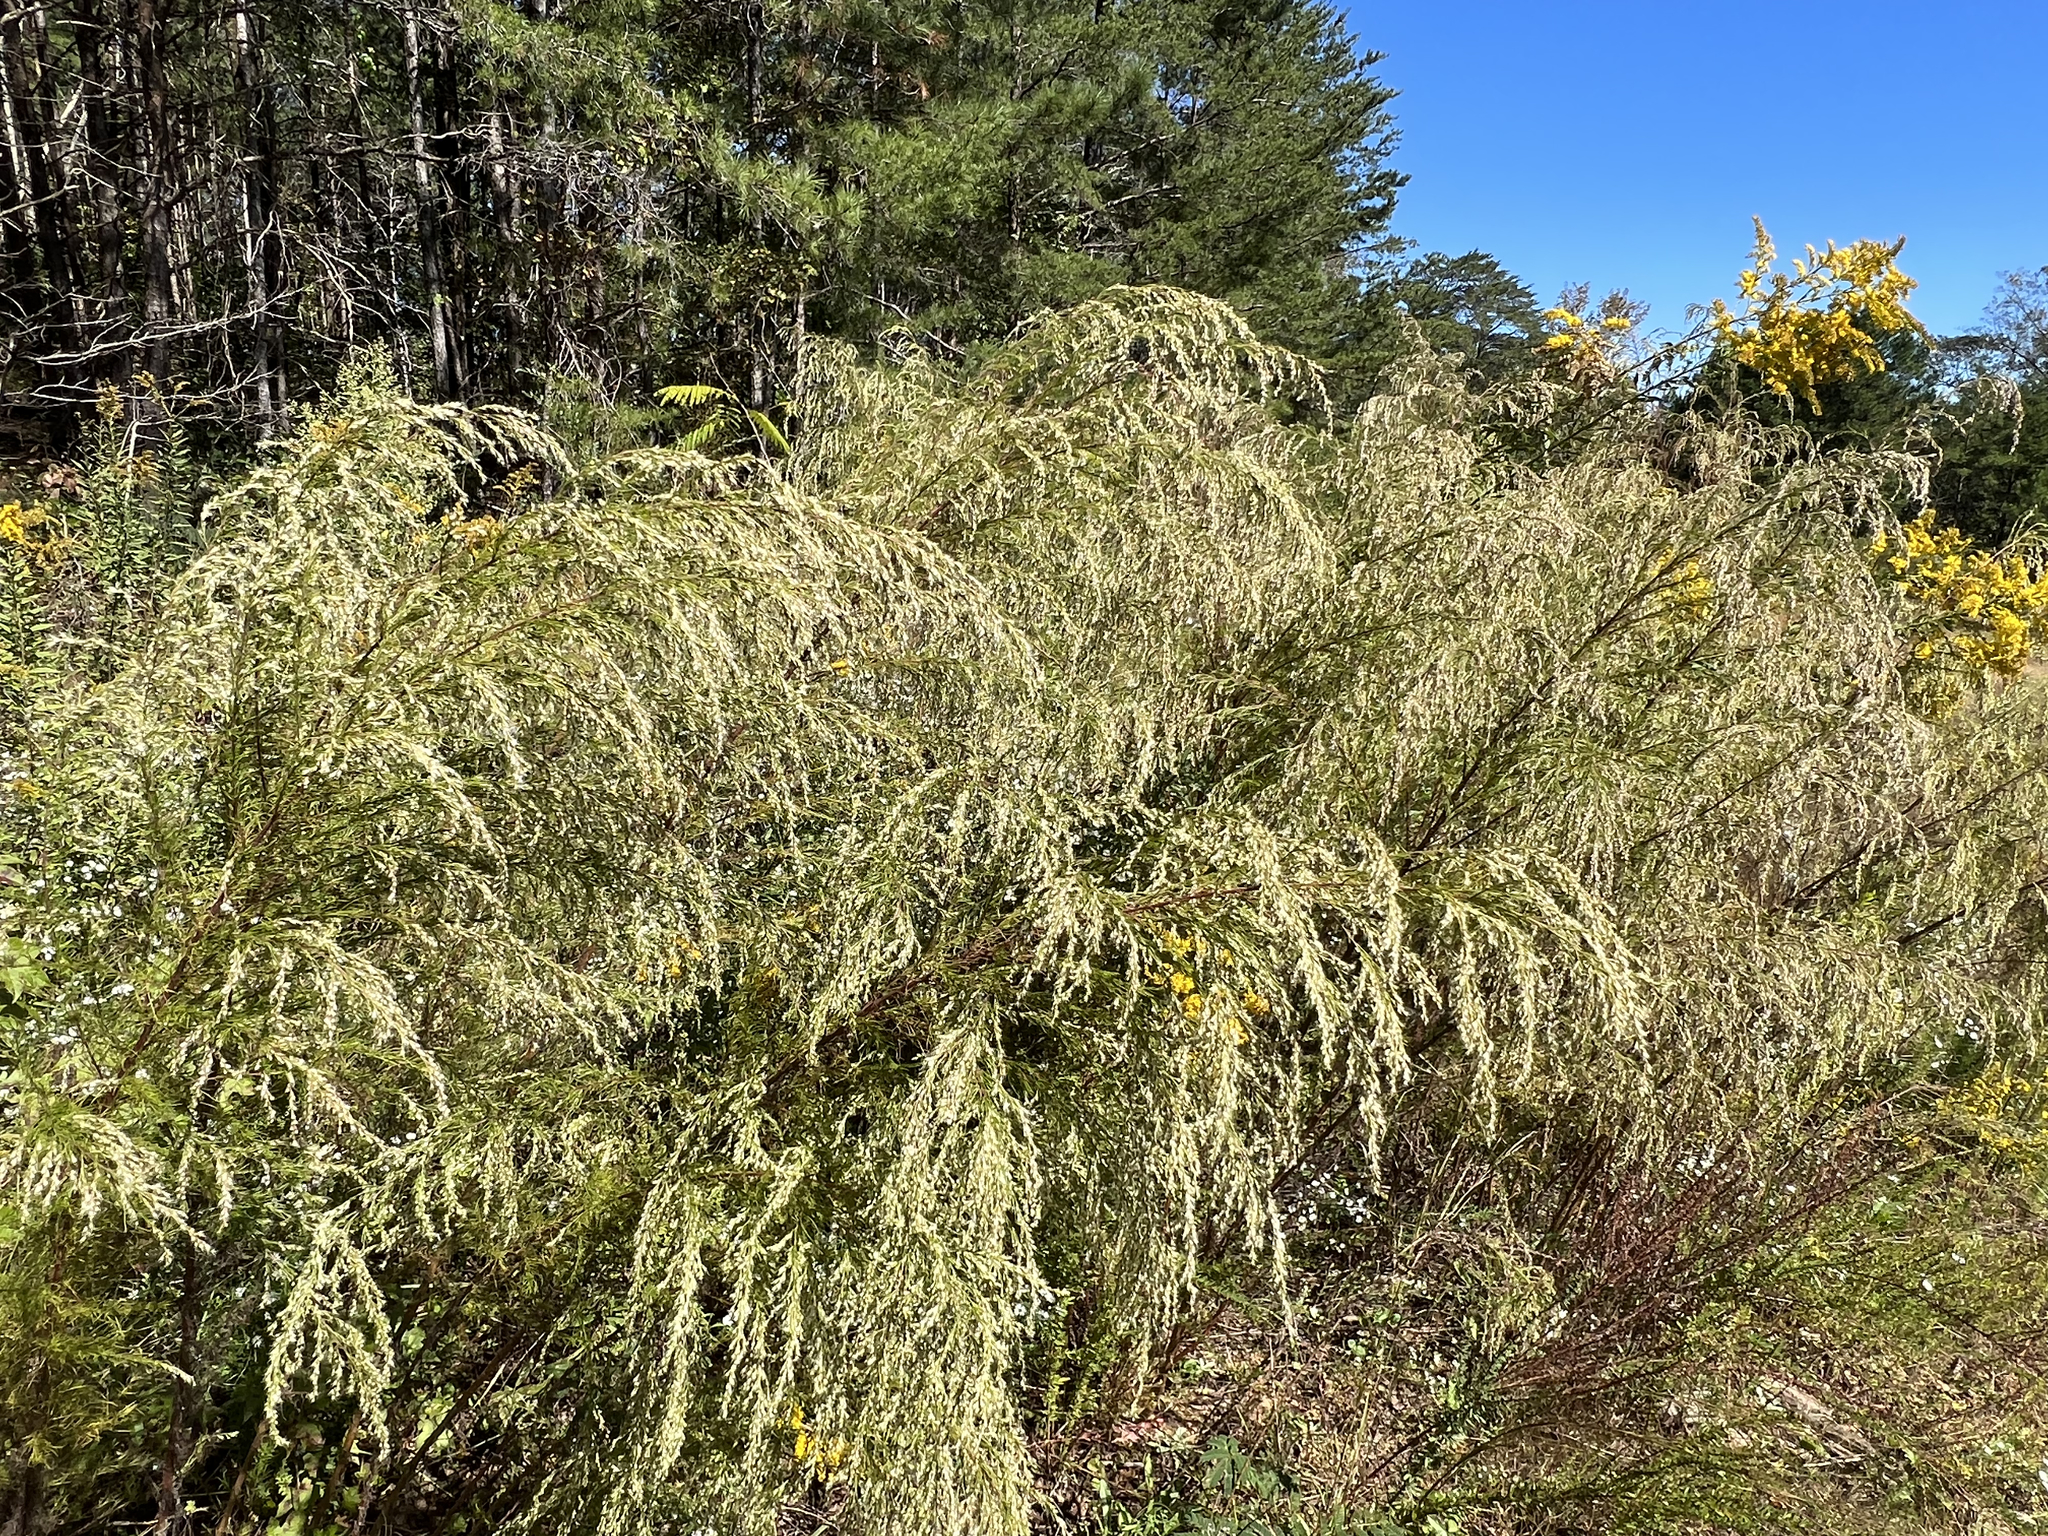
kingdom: Plantae
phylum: Tracheophyta
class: Magnoliopsida
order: Asterales
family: Asteraceae
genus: Eupatorium
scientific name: Eupatorium capillifolium
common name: Dog-fennel
